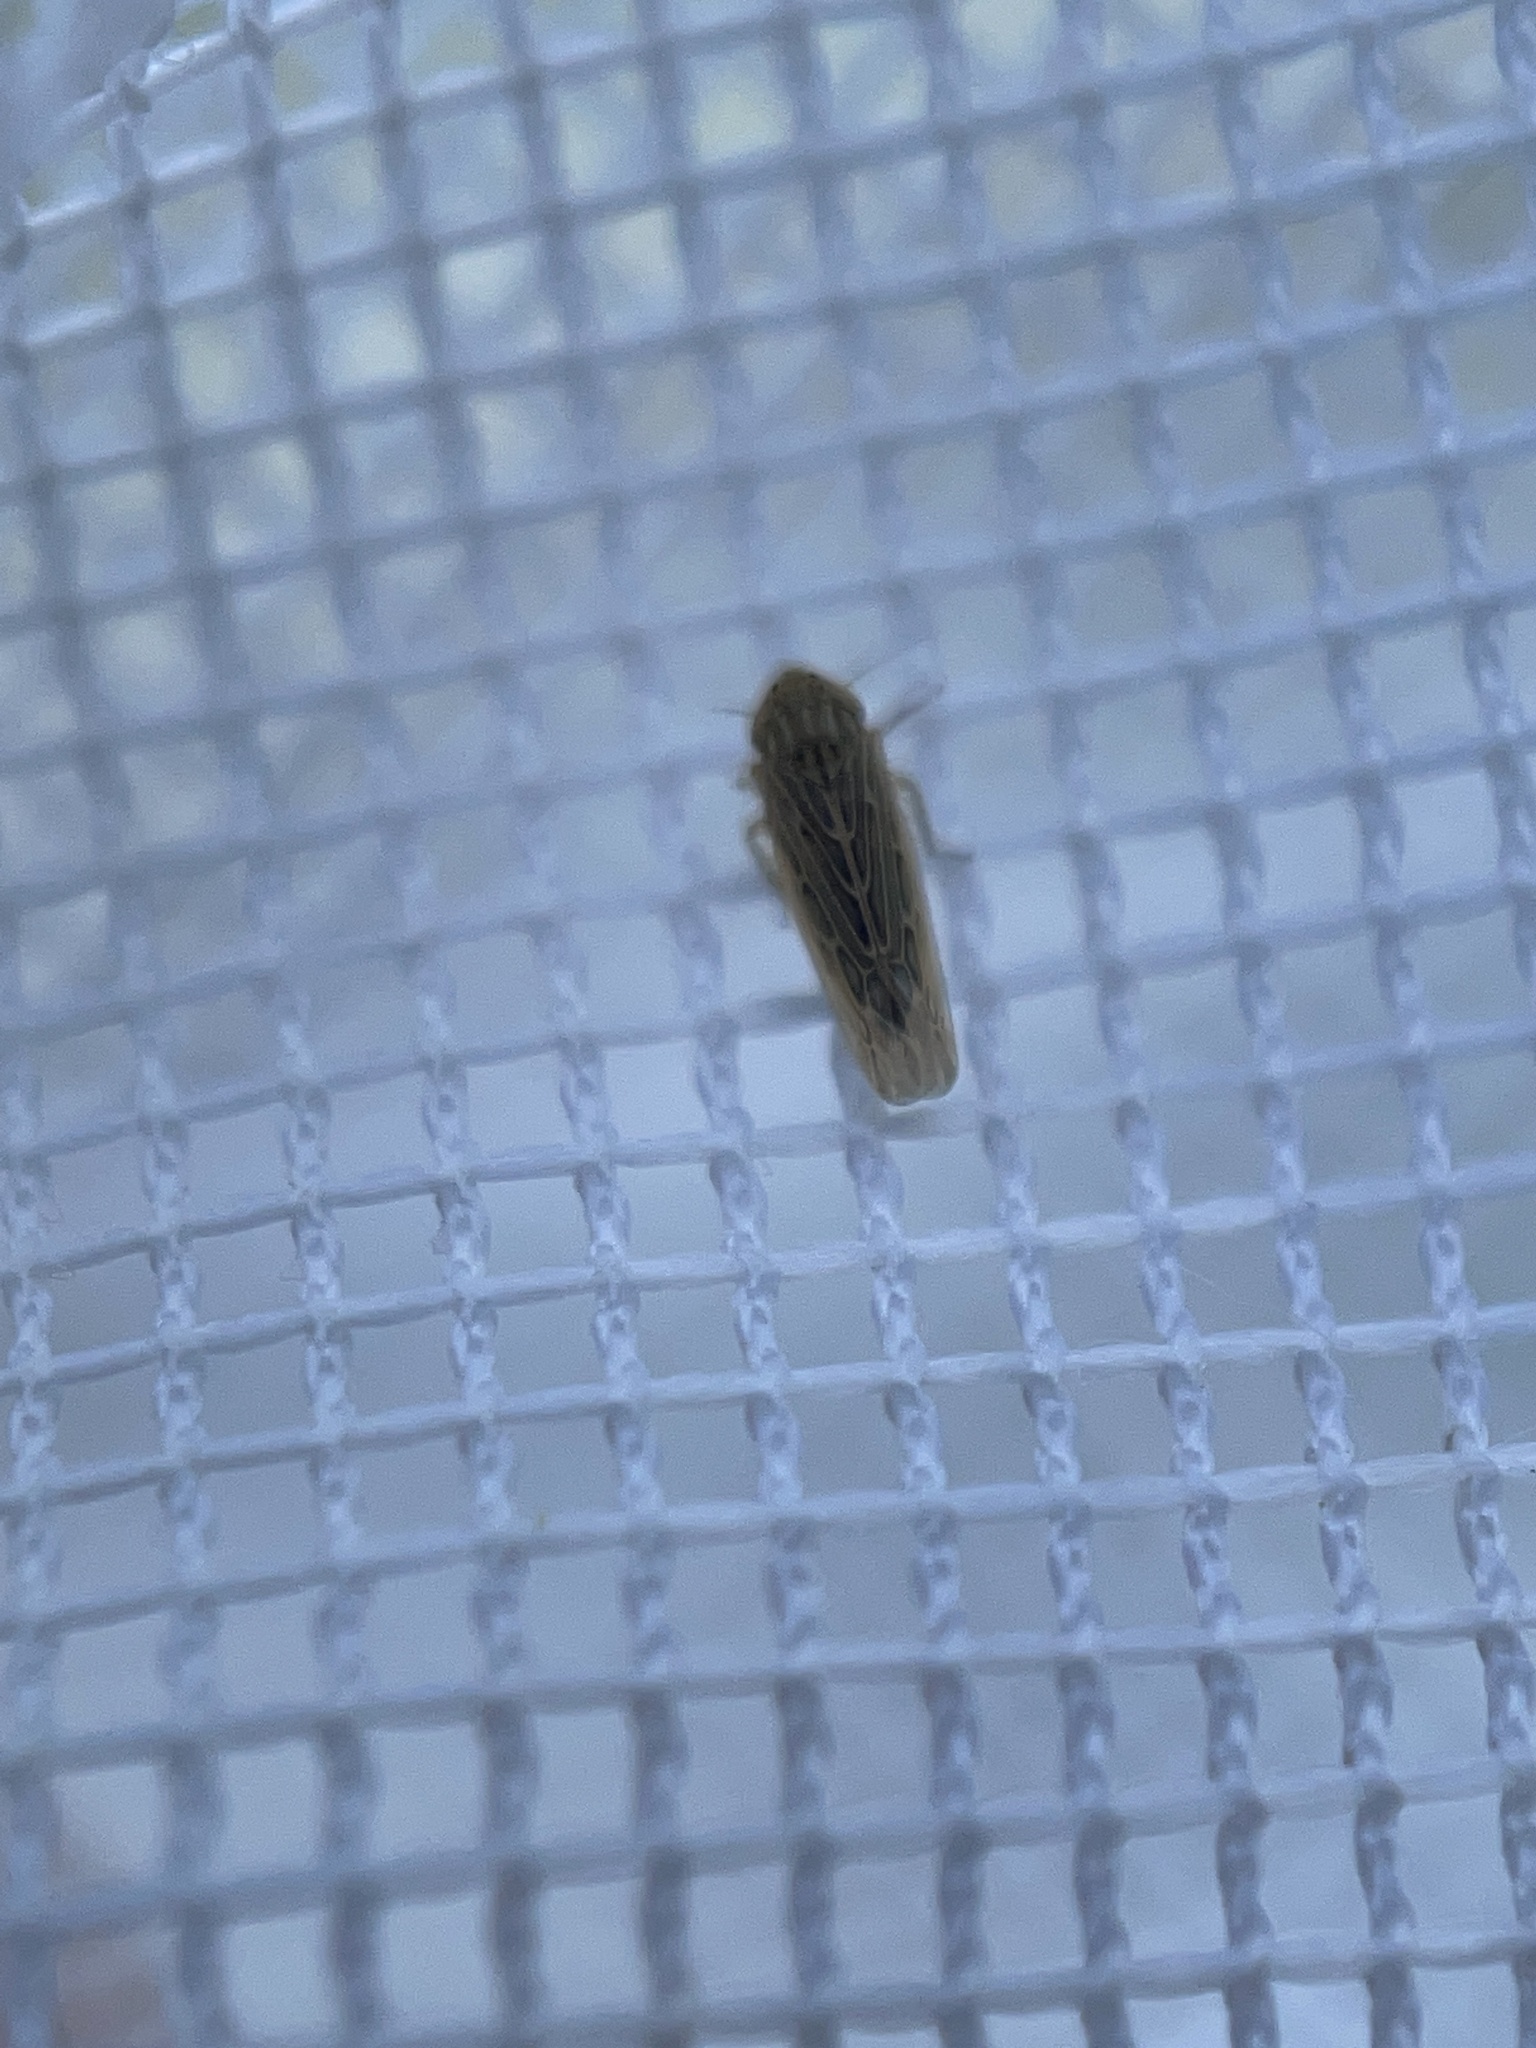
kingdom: Animalia
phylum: Arthropoda
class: Insecta
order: Hemiptera
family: Cicadellidae
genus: Graminella
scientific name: Graminella sonora
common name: Lesser lawn leafhopper
